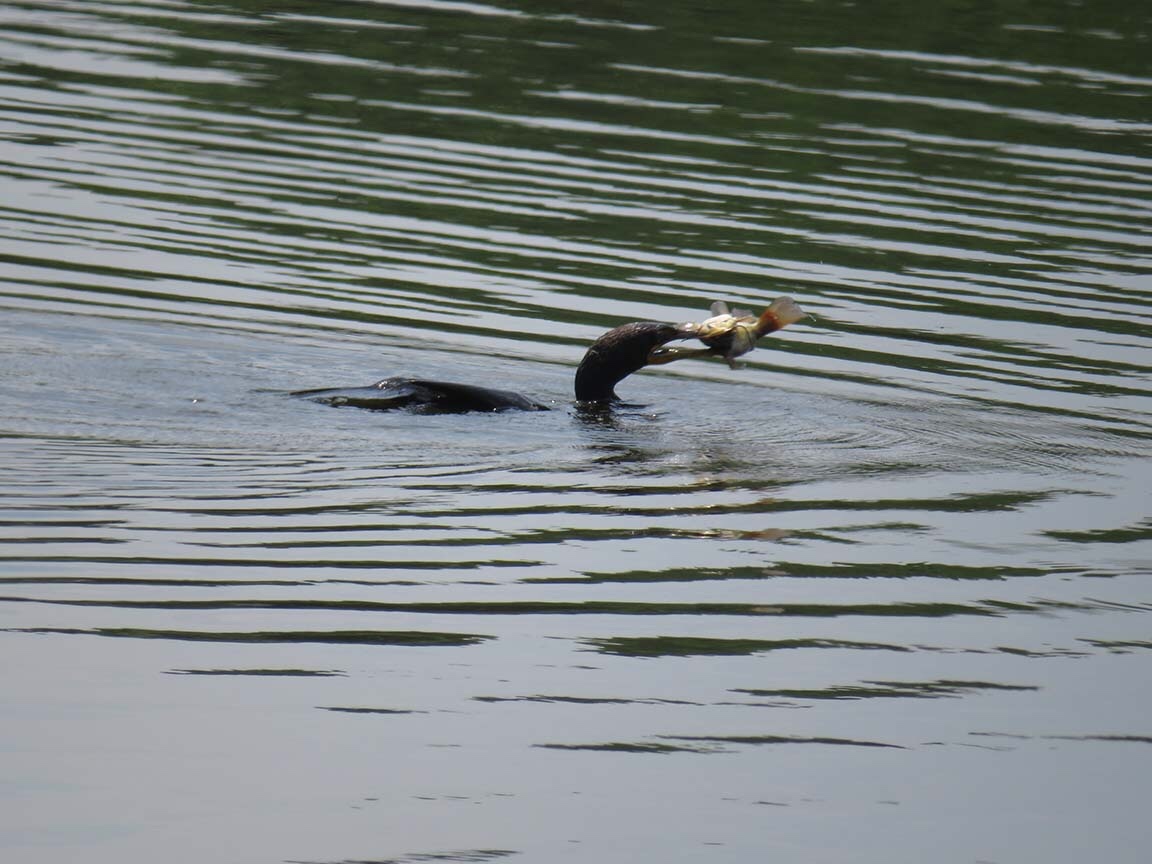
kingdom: Animalia
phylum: Chordata
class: Aves
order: Suliformes
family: Phalacrocoracidae
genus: Phalacrocorax
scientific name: Phalacrocorax auritus
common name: Double-crested cormorant
